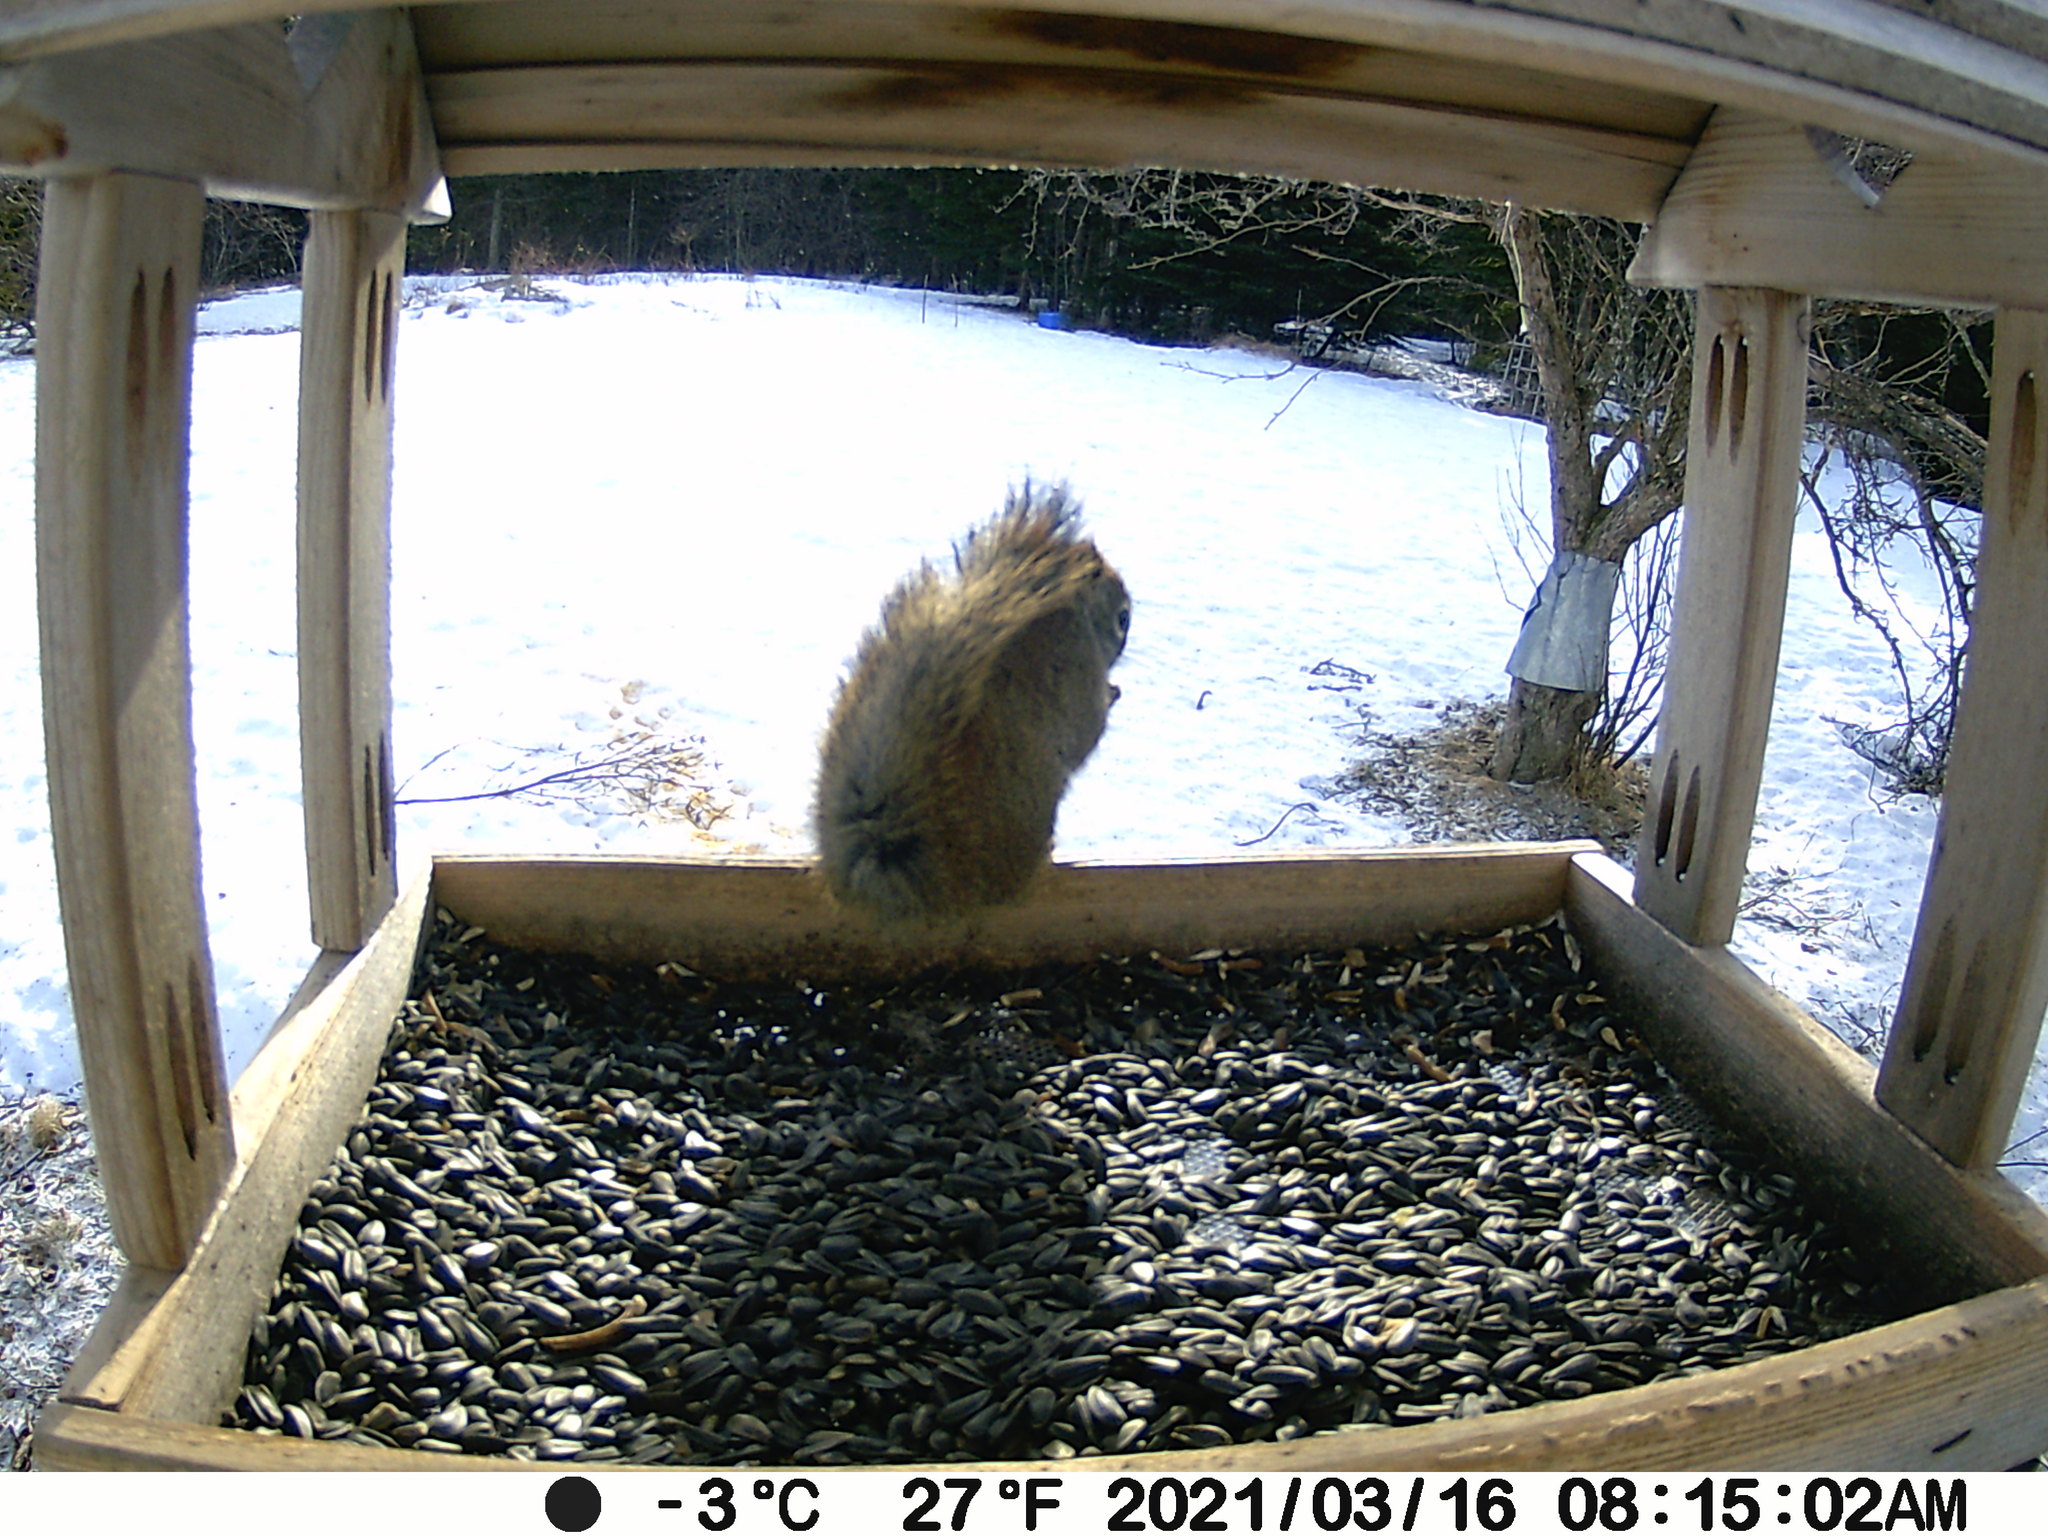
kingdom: Animalia
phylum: Chordata
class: Mammalia
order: Rodentia
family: Sciuridae
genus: Tamiasciurus
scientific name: Tamiasciurus hudsonicus
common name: Red squirrel
